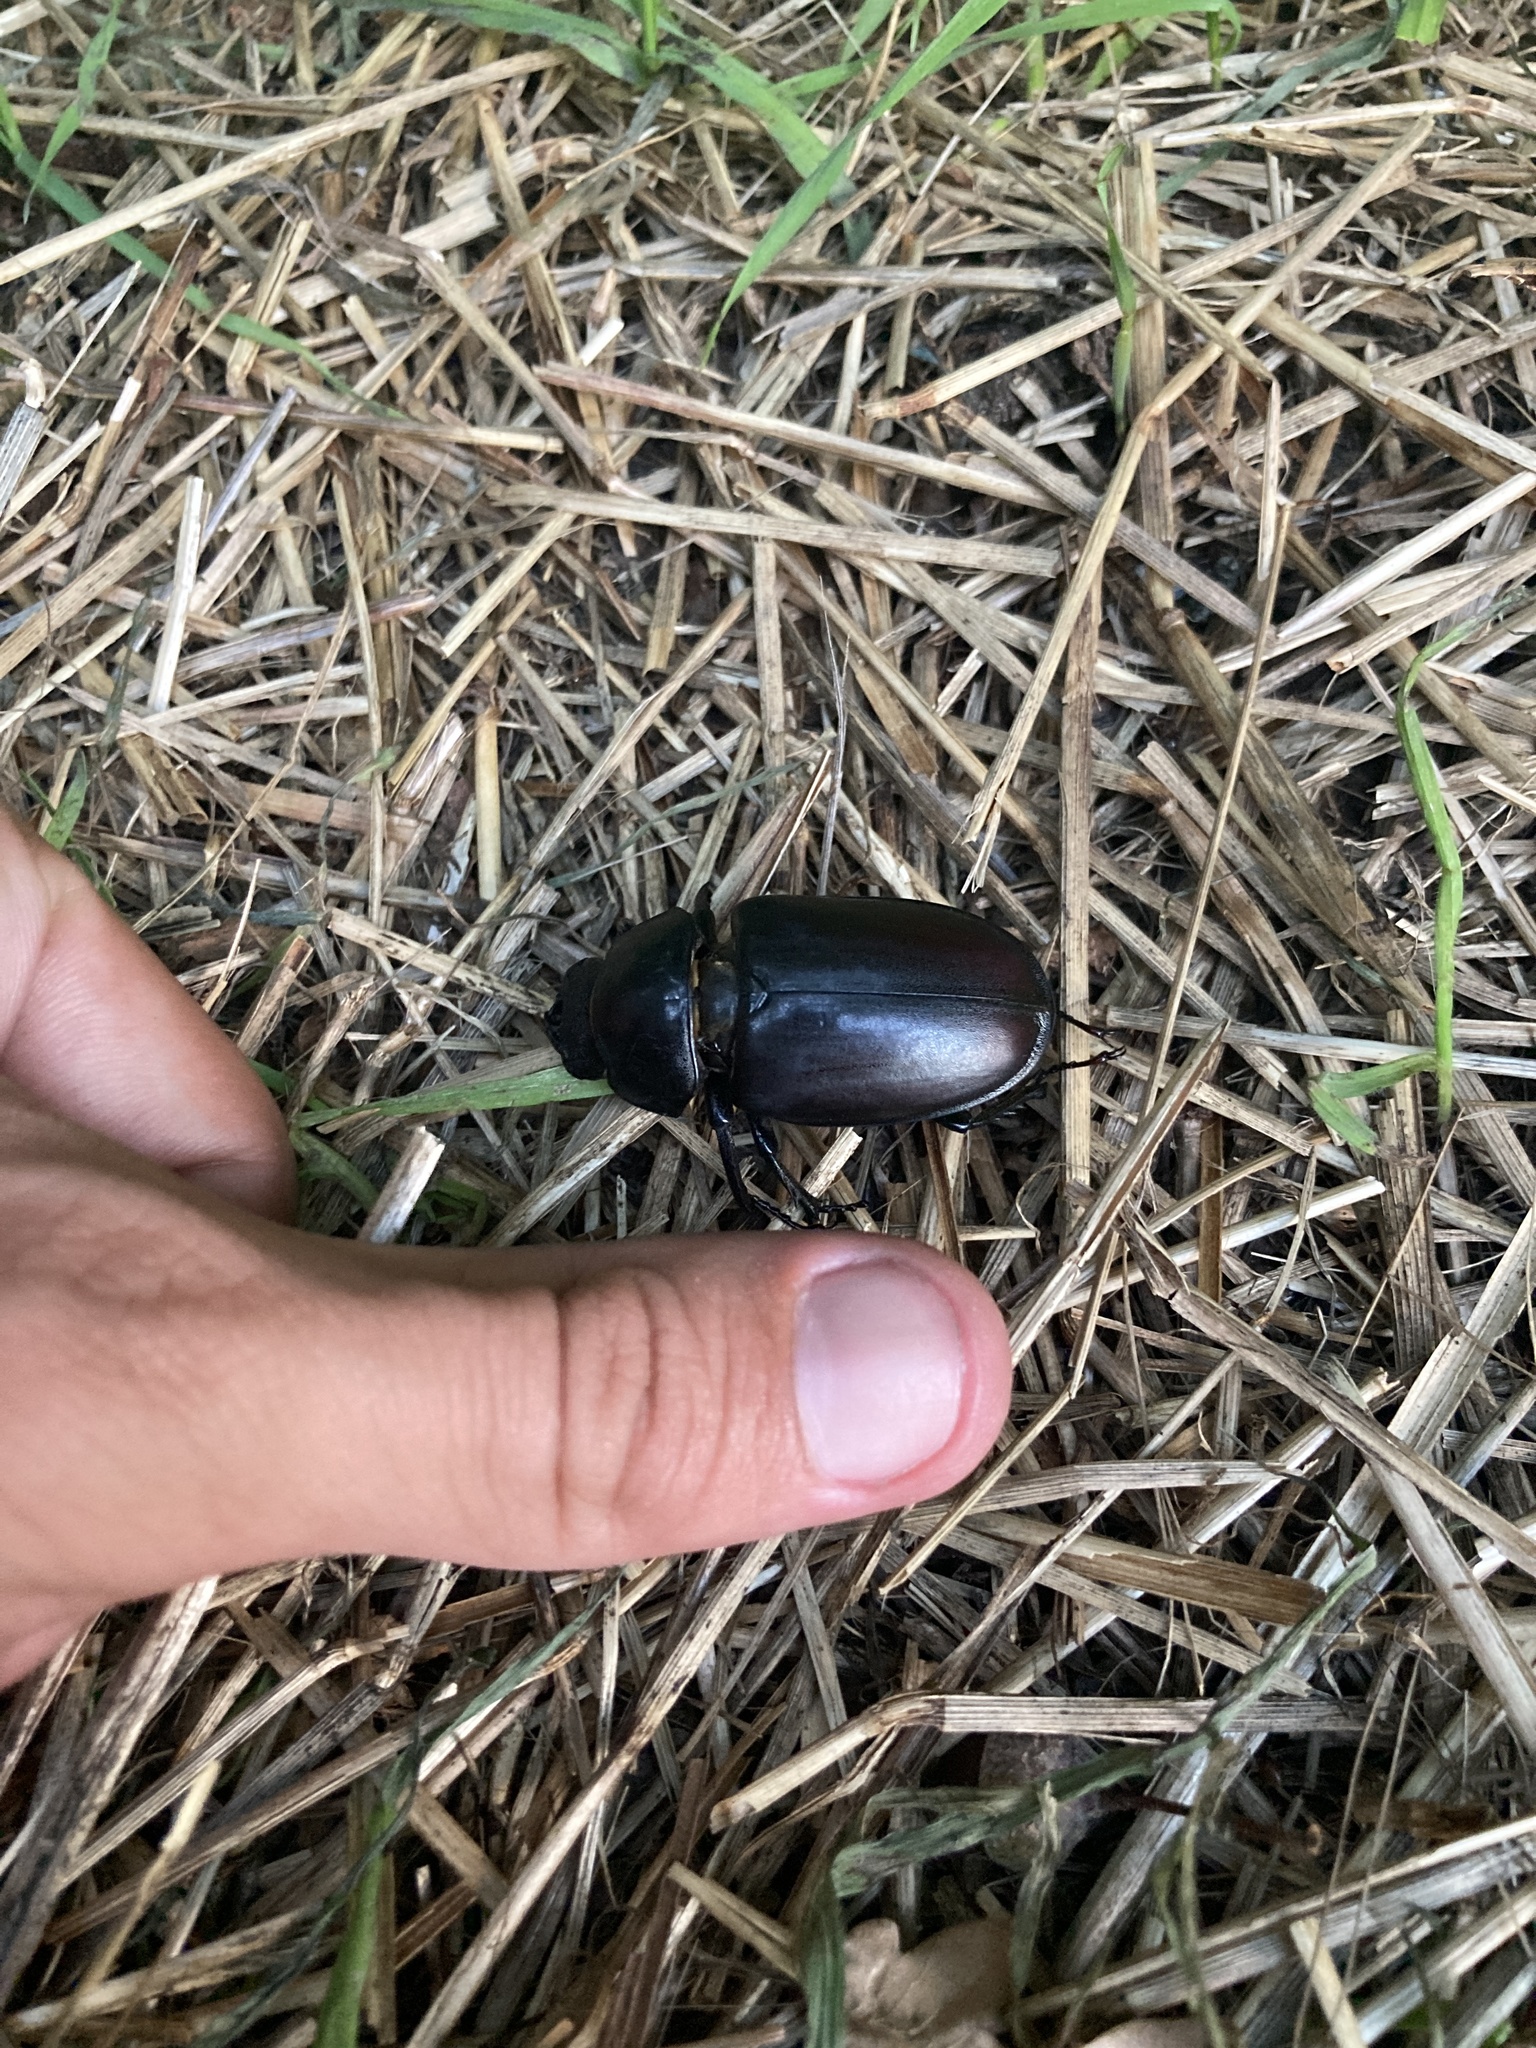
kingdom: Animalia
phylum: Arthropoda
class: Insecta
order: Coleoptera
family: Lucanidae
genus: Lucanus
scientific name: Lucanus cervus
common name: Stag beetle
